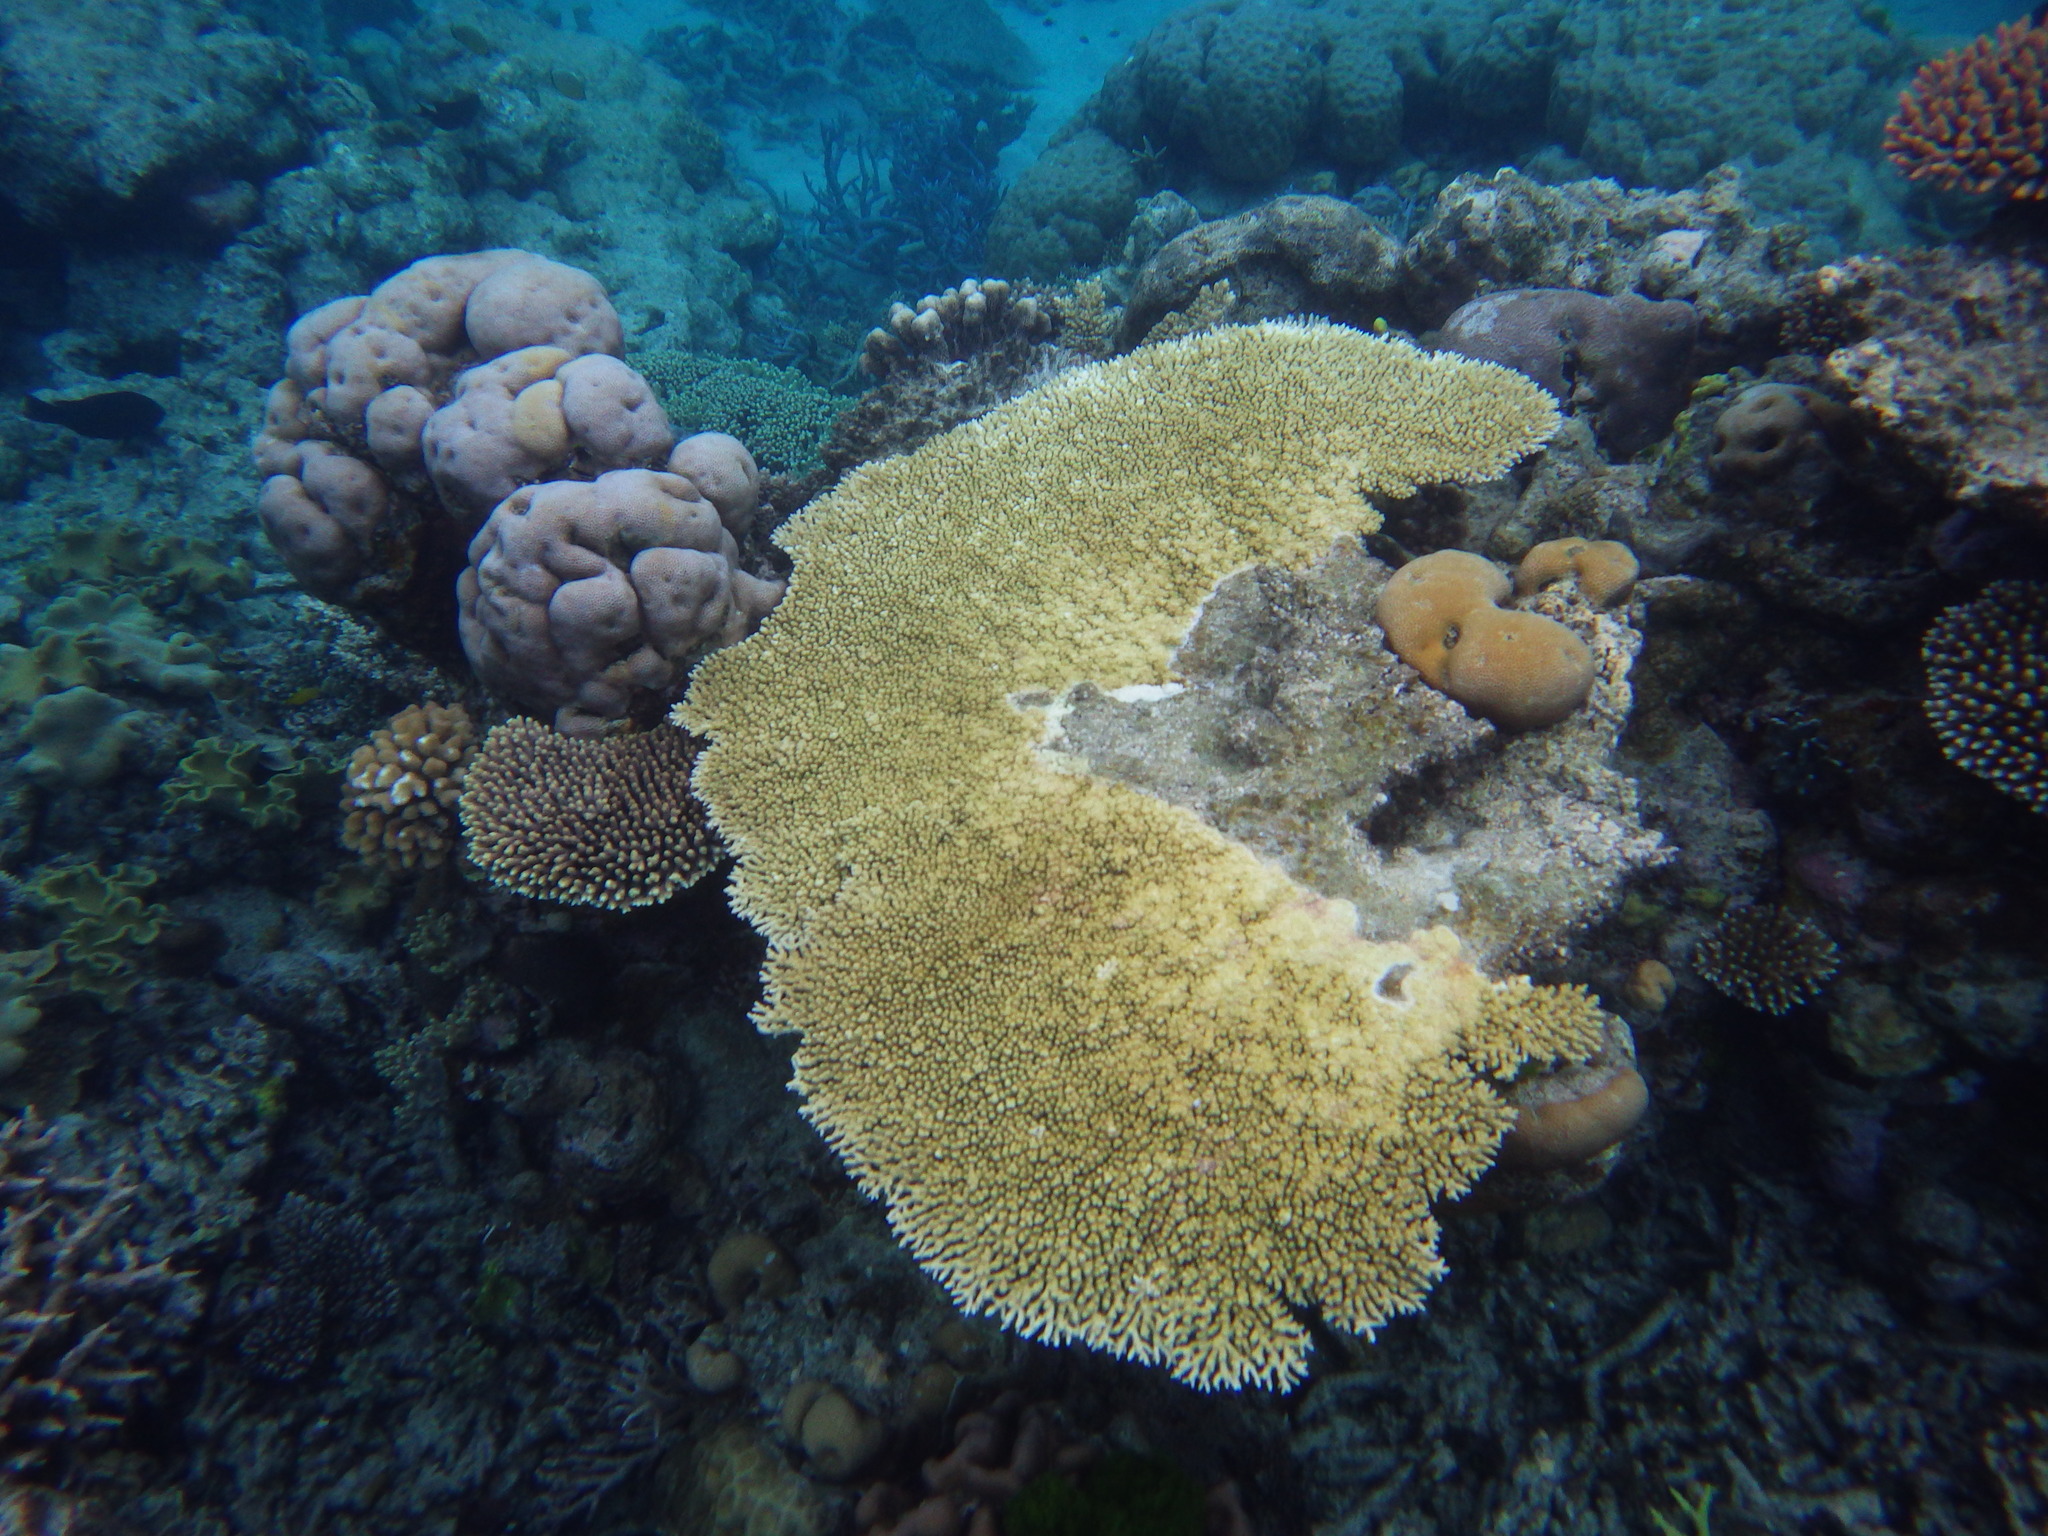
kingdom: Animalia
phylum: Cnidaria
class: Anthozoa
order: Scleractinia
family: Acroporidae
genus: Acropora
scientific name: Acropora cytherea
